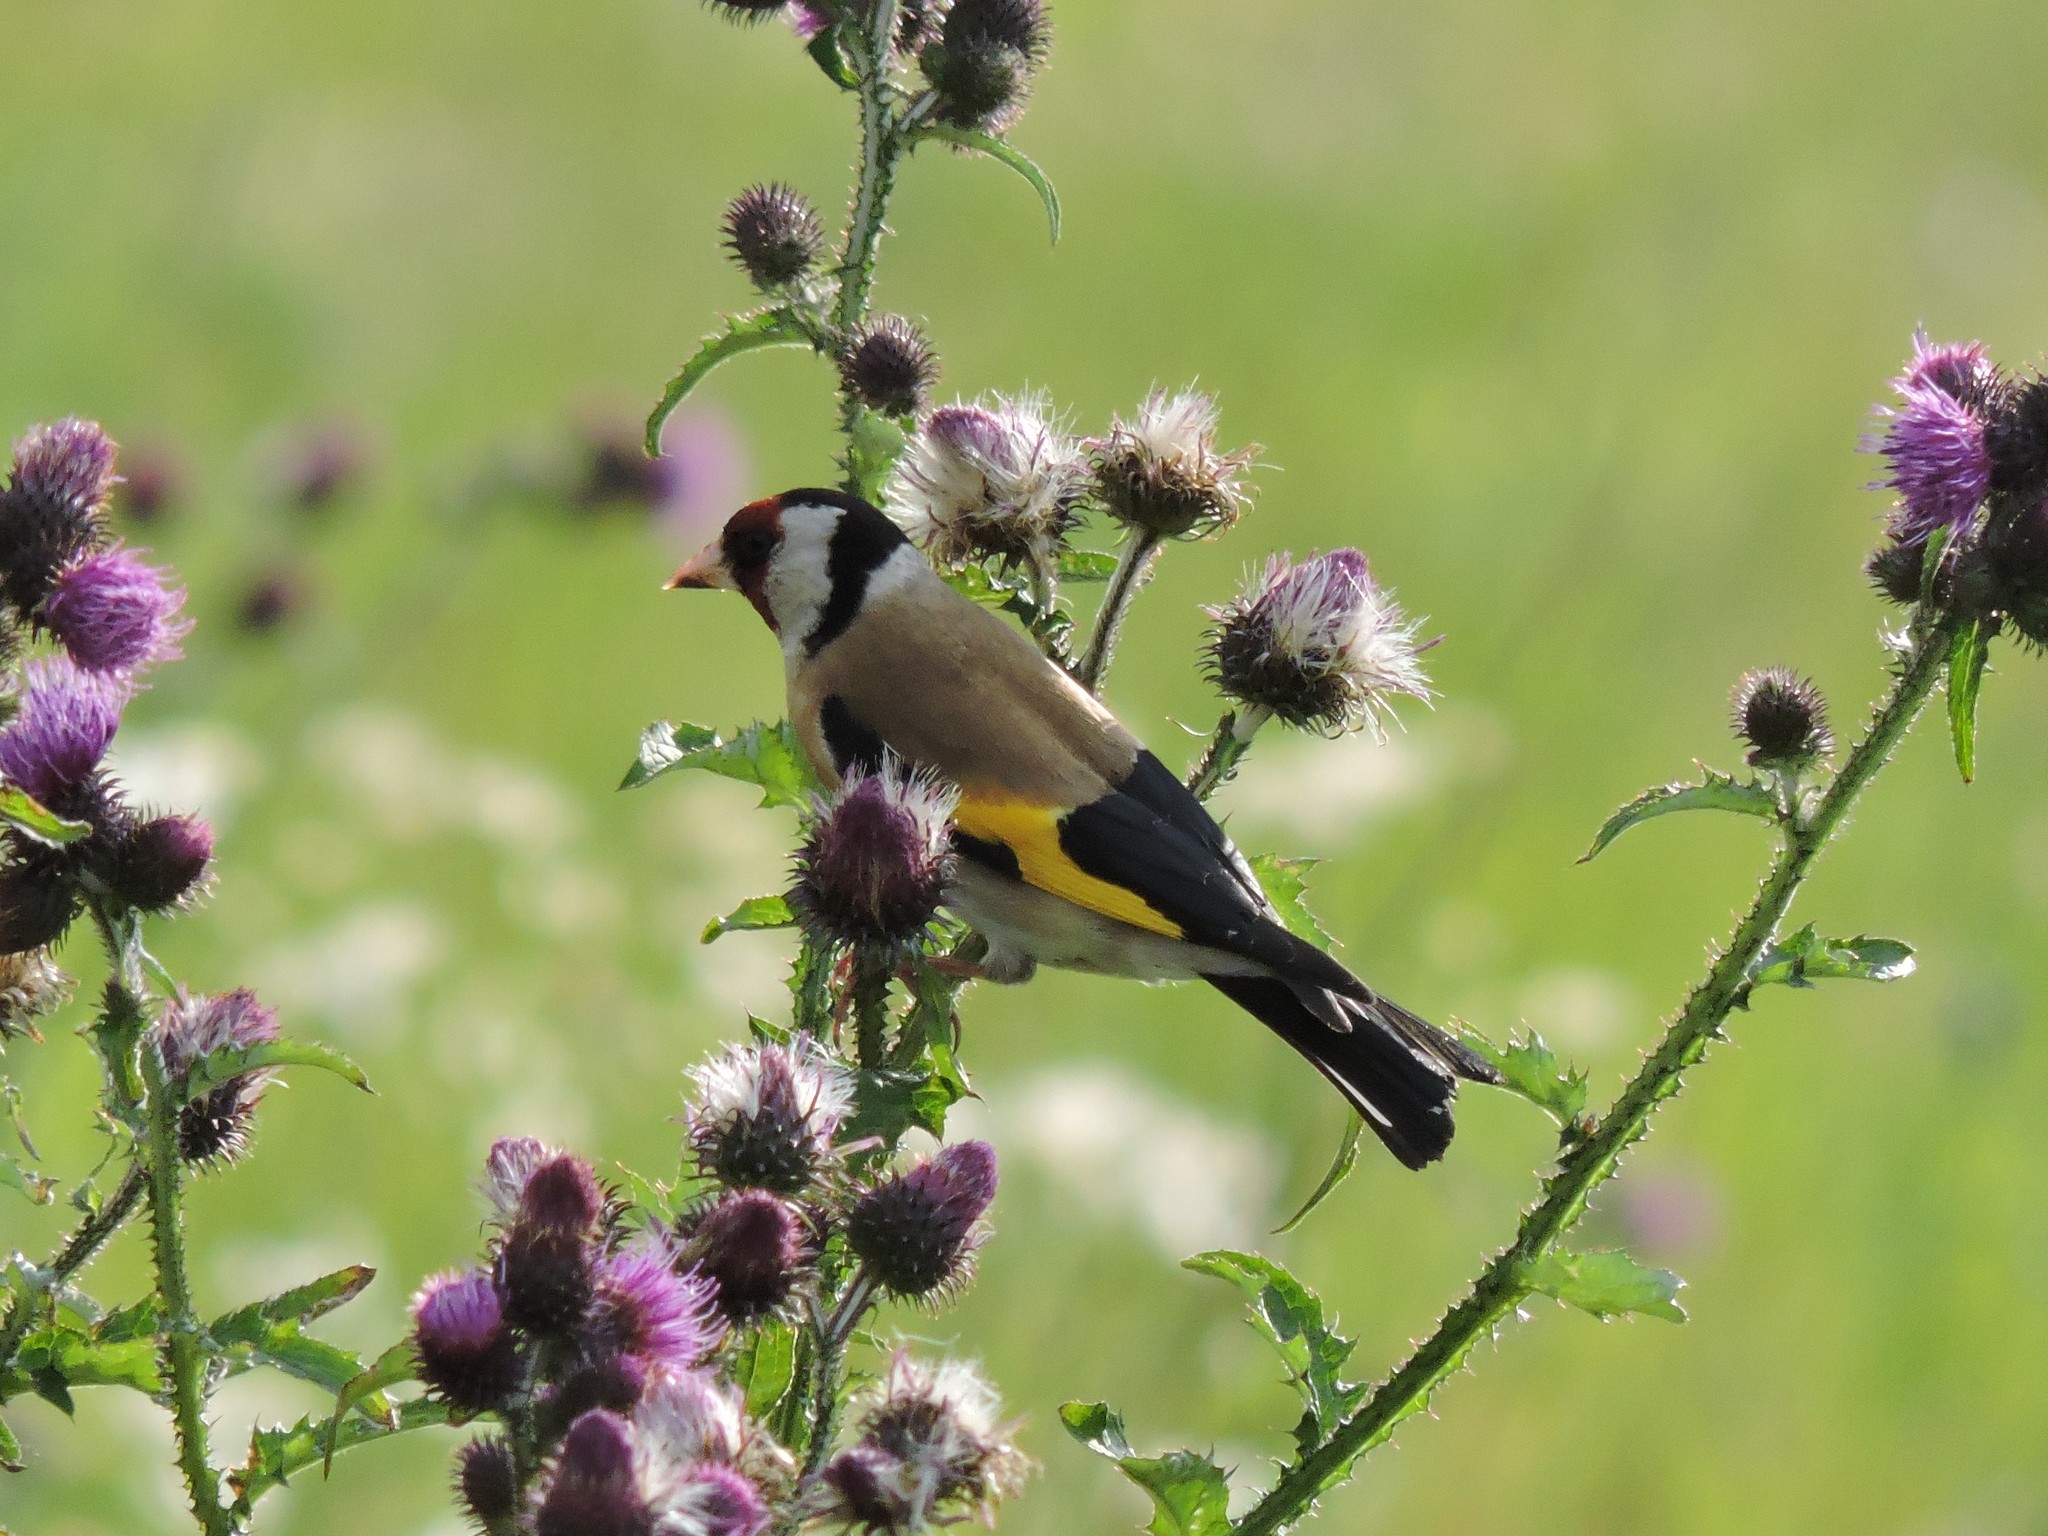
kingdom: Animalia
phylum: Chordata
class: Aves
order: Passeriformes
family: Fringillidae
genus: Carduelis
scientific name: Carduelis carduelis
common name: European goldfinch
